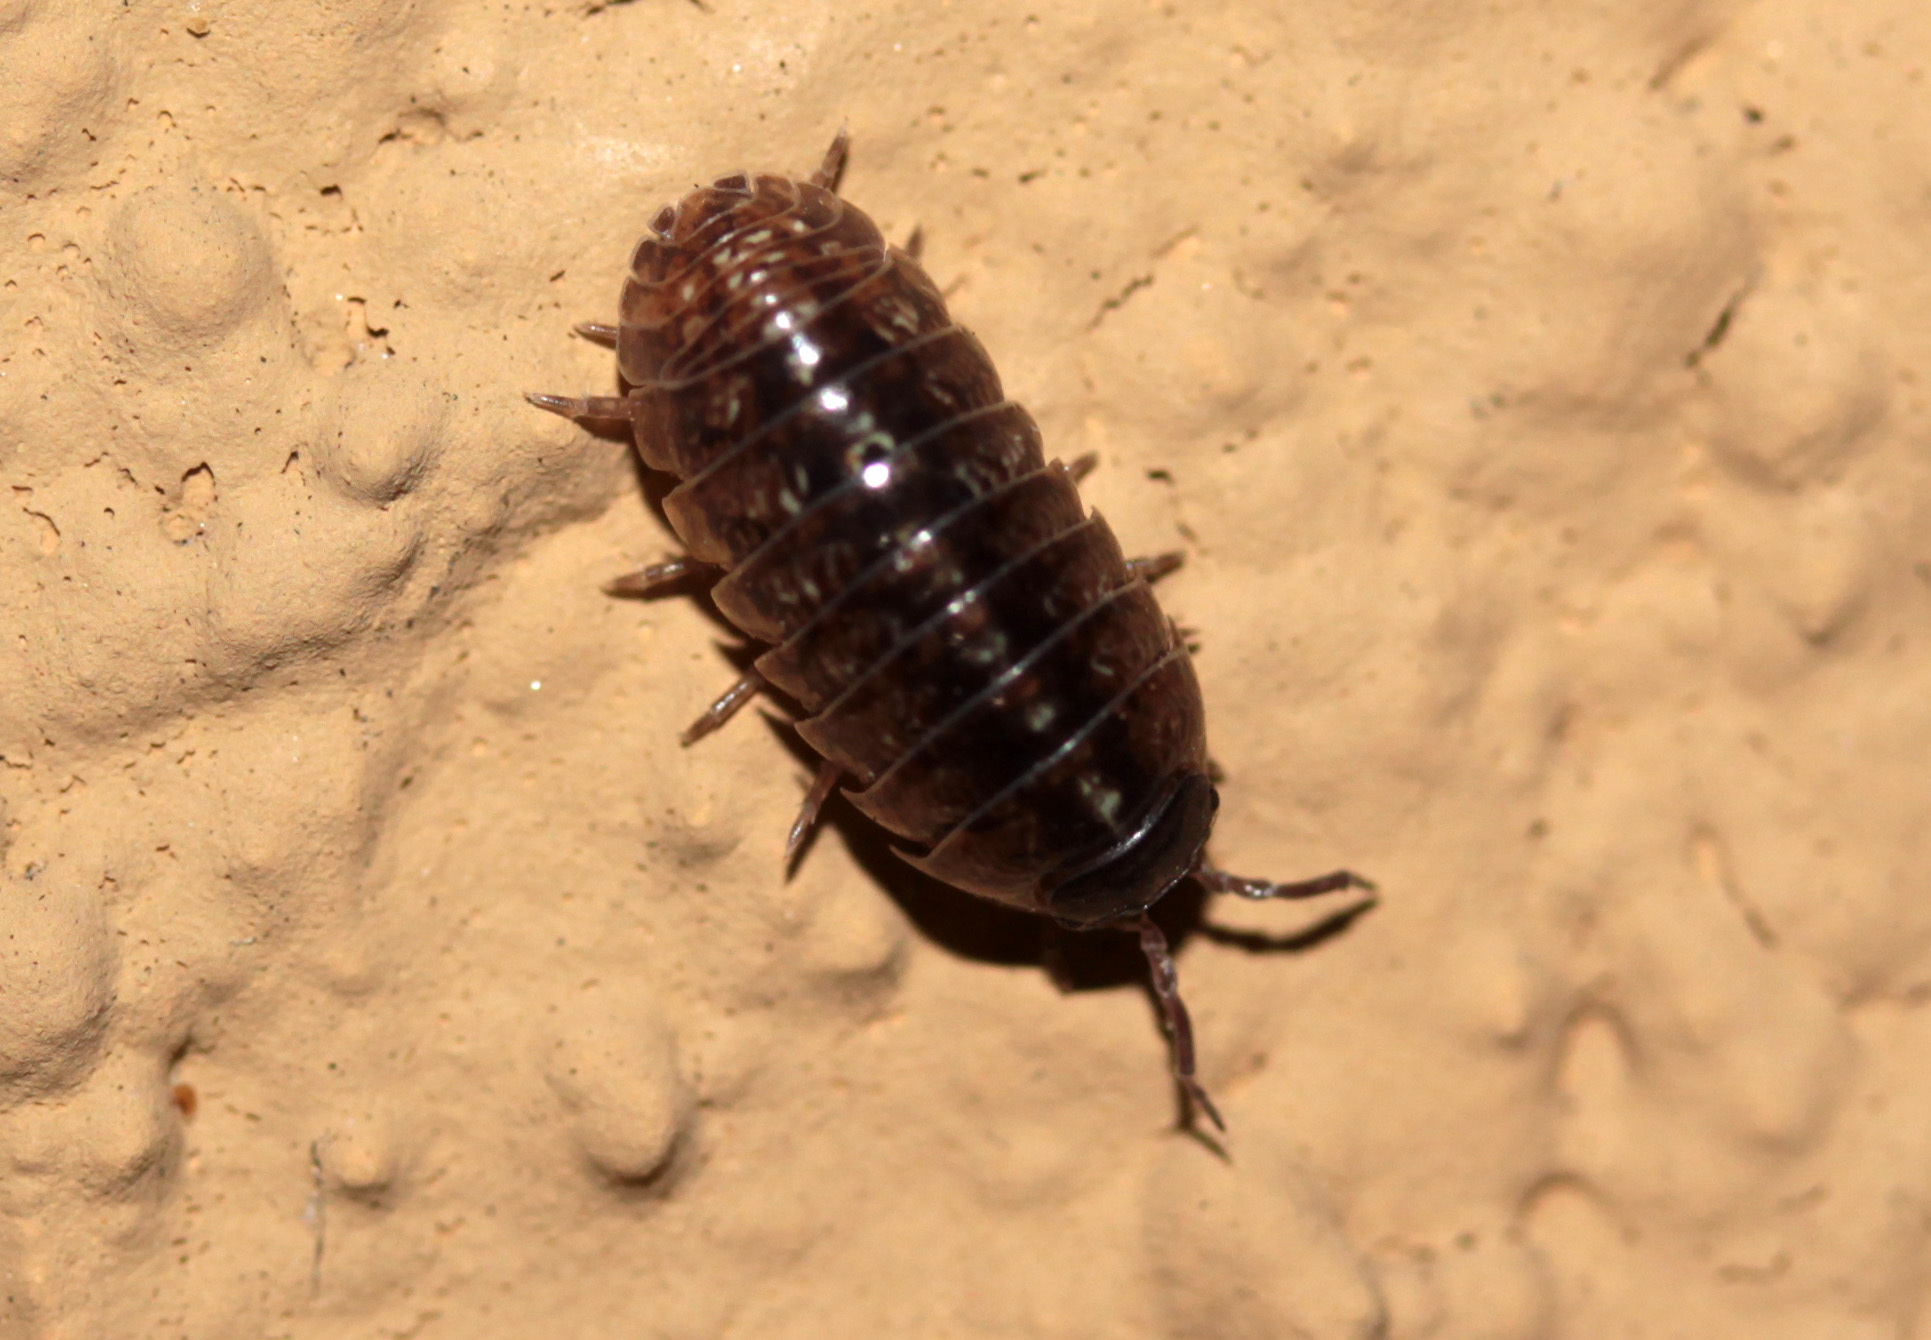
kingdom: Animalia
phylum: Arthropoda
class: Malacostraca
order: Isopoda
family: Armadillidiidae
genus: Armadillidium
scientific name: Armadillidium vulgare
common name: Common pill woodlouse
